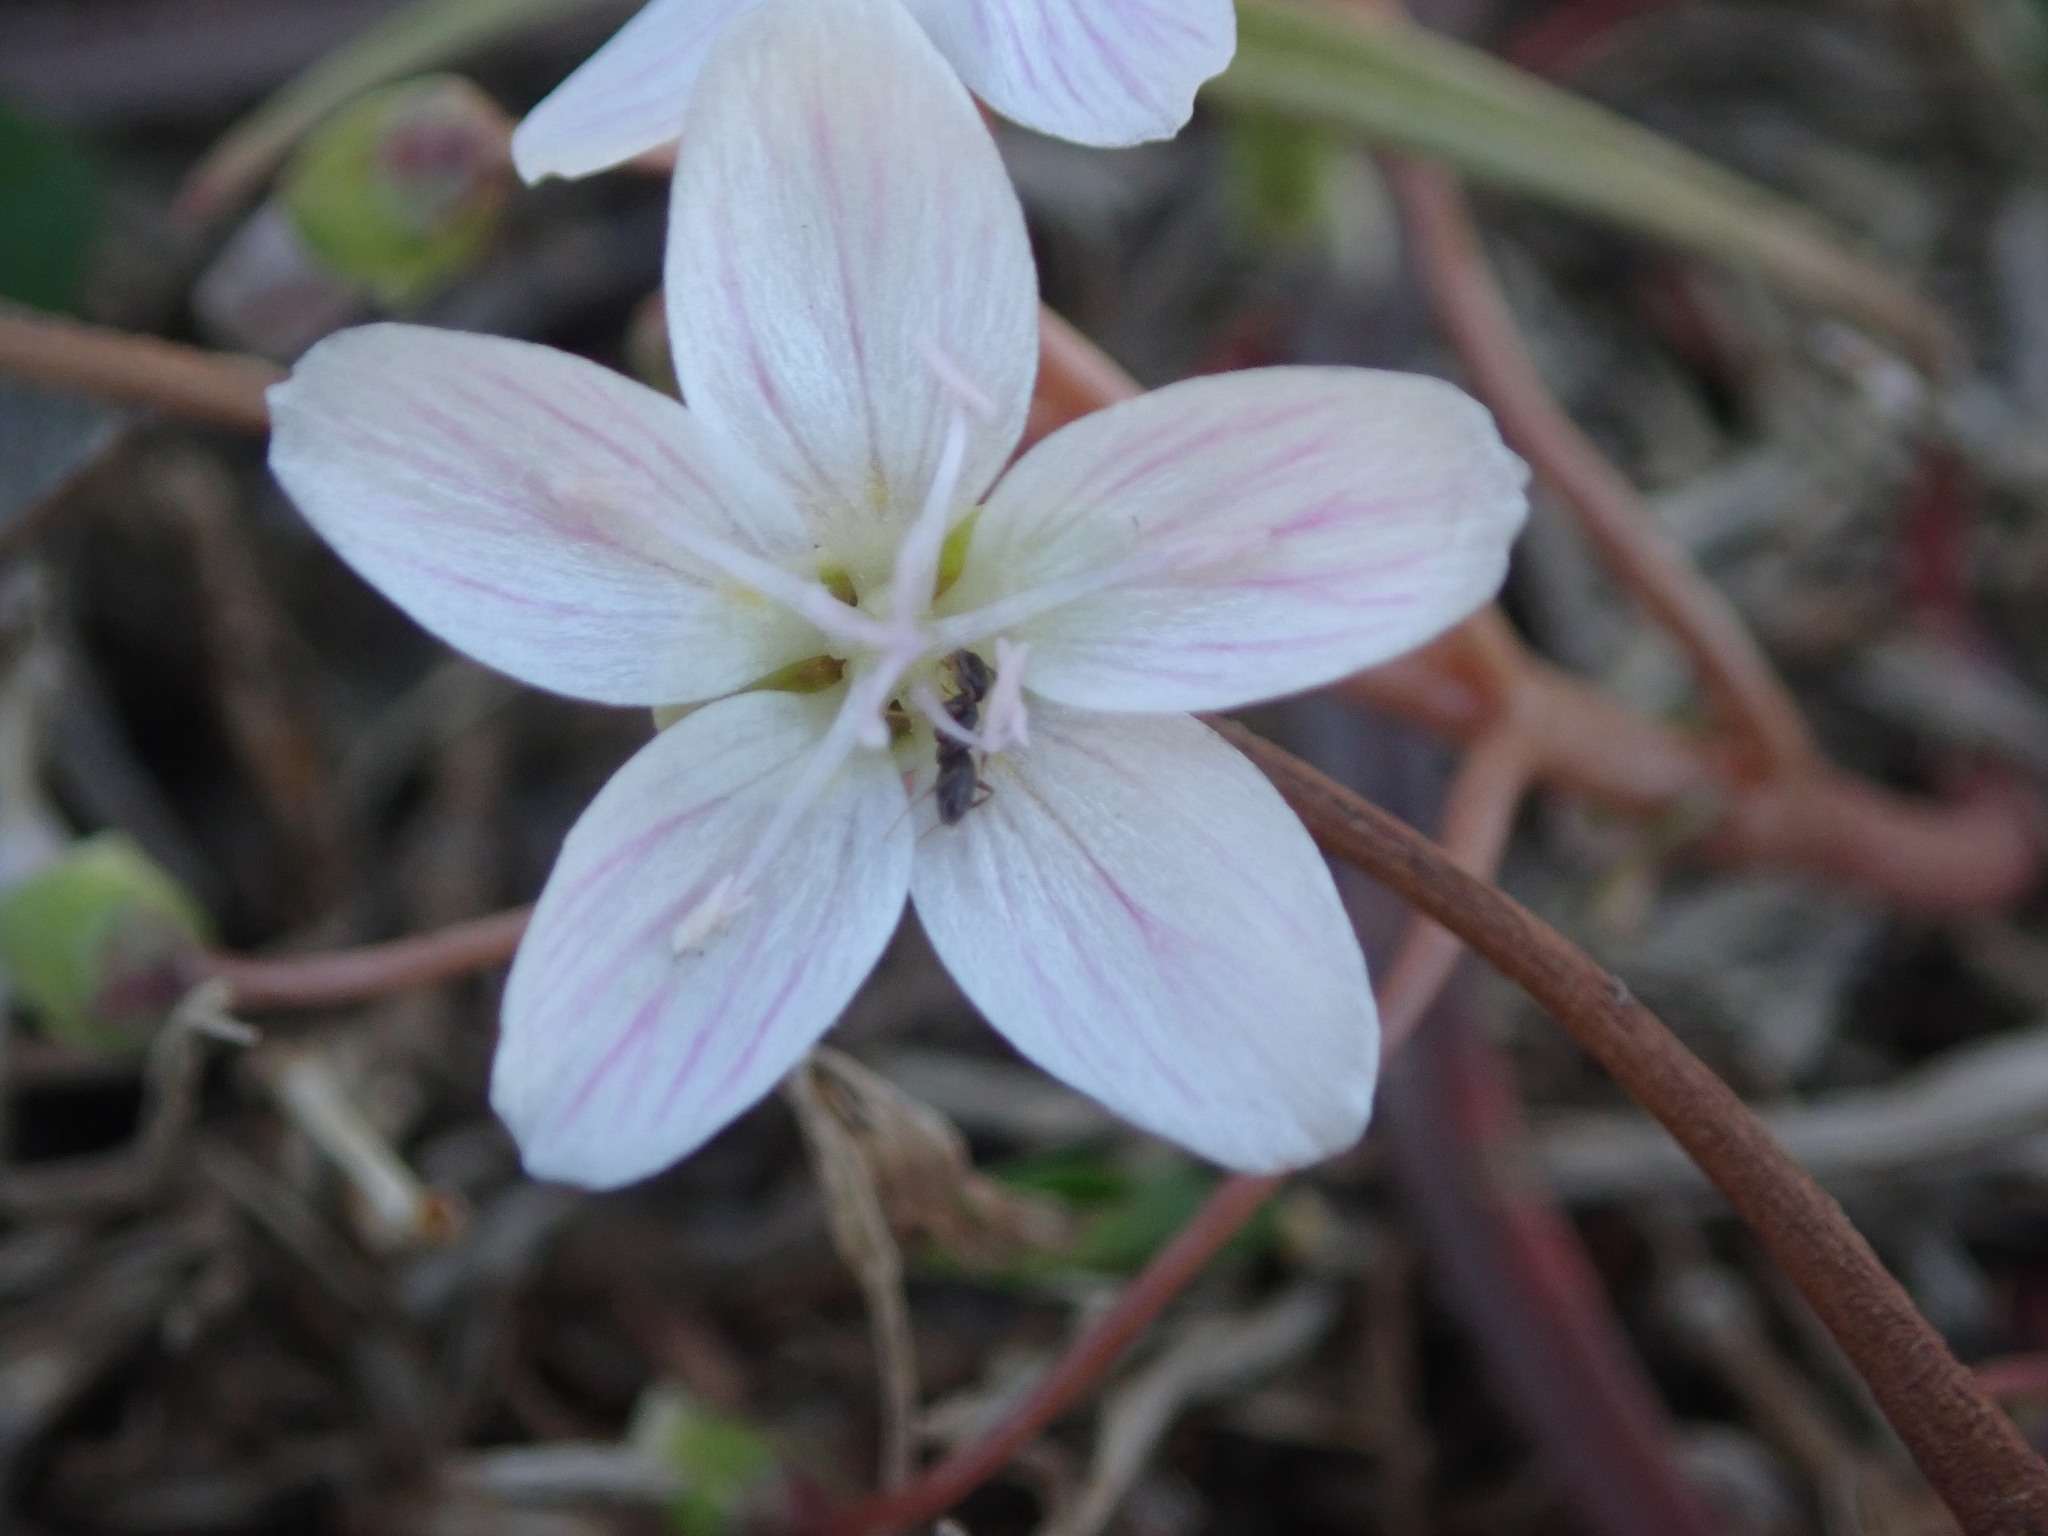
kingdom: Plantae
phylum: Tracheophyta
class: Magnoliopsida
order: Caryophyllales
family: Montiaceae
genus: Claytonia
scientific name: Claytonia virginica
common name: Virginia springbeauty
